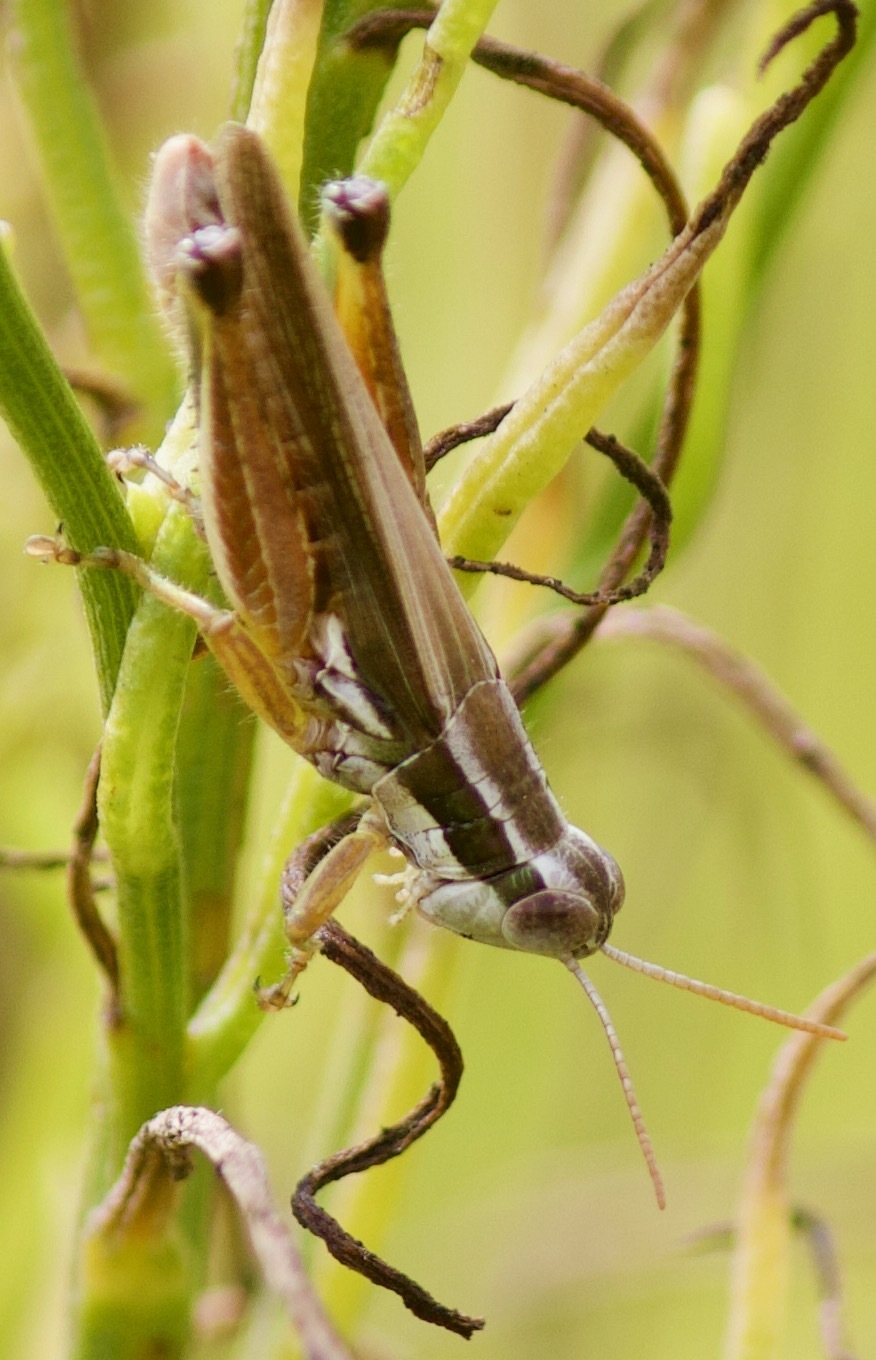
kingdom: Animalia
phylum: Arthropoda
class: Insecta
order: Orthoptera
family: Acrididae
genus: Dichroplus
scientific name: Dichroplus elongatus
